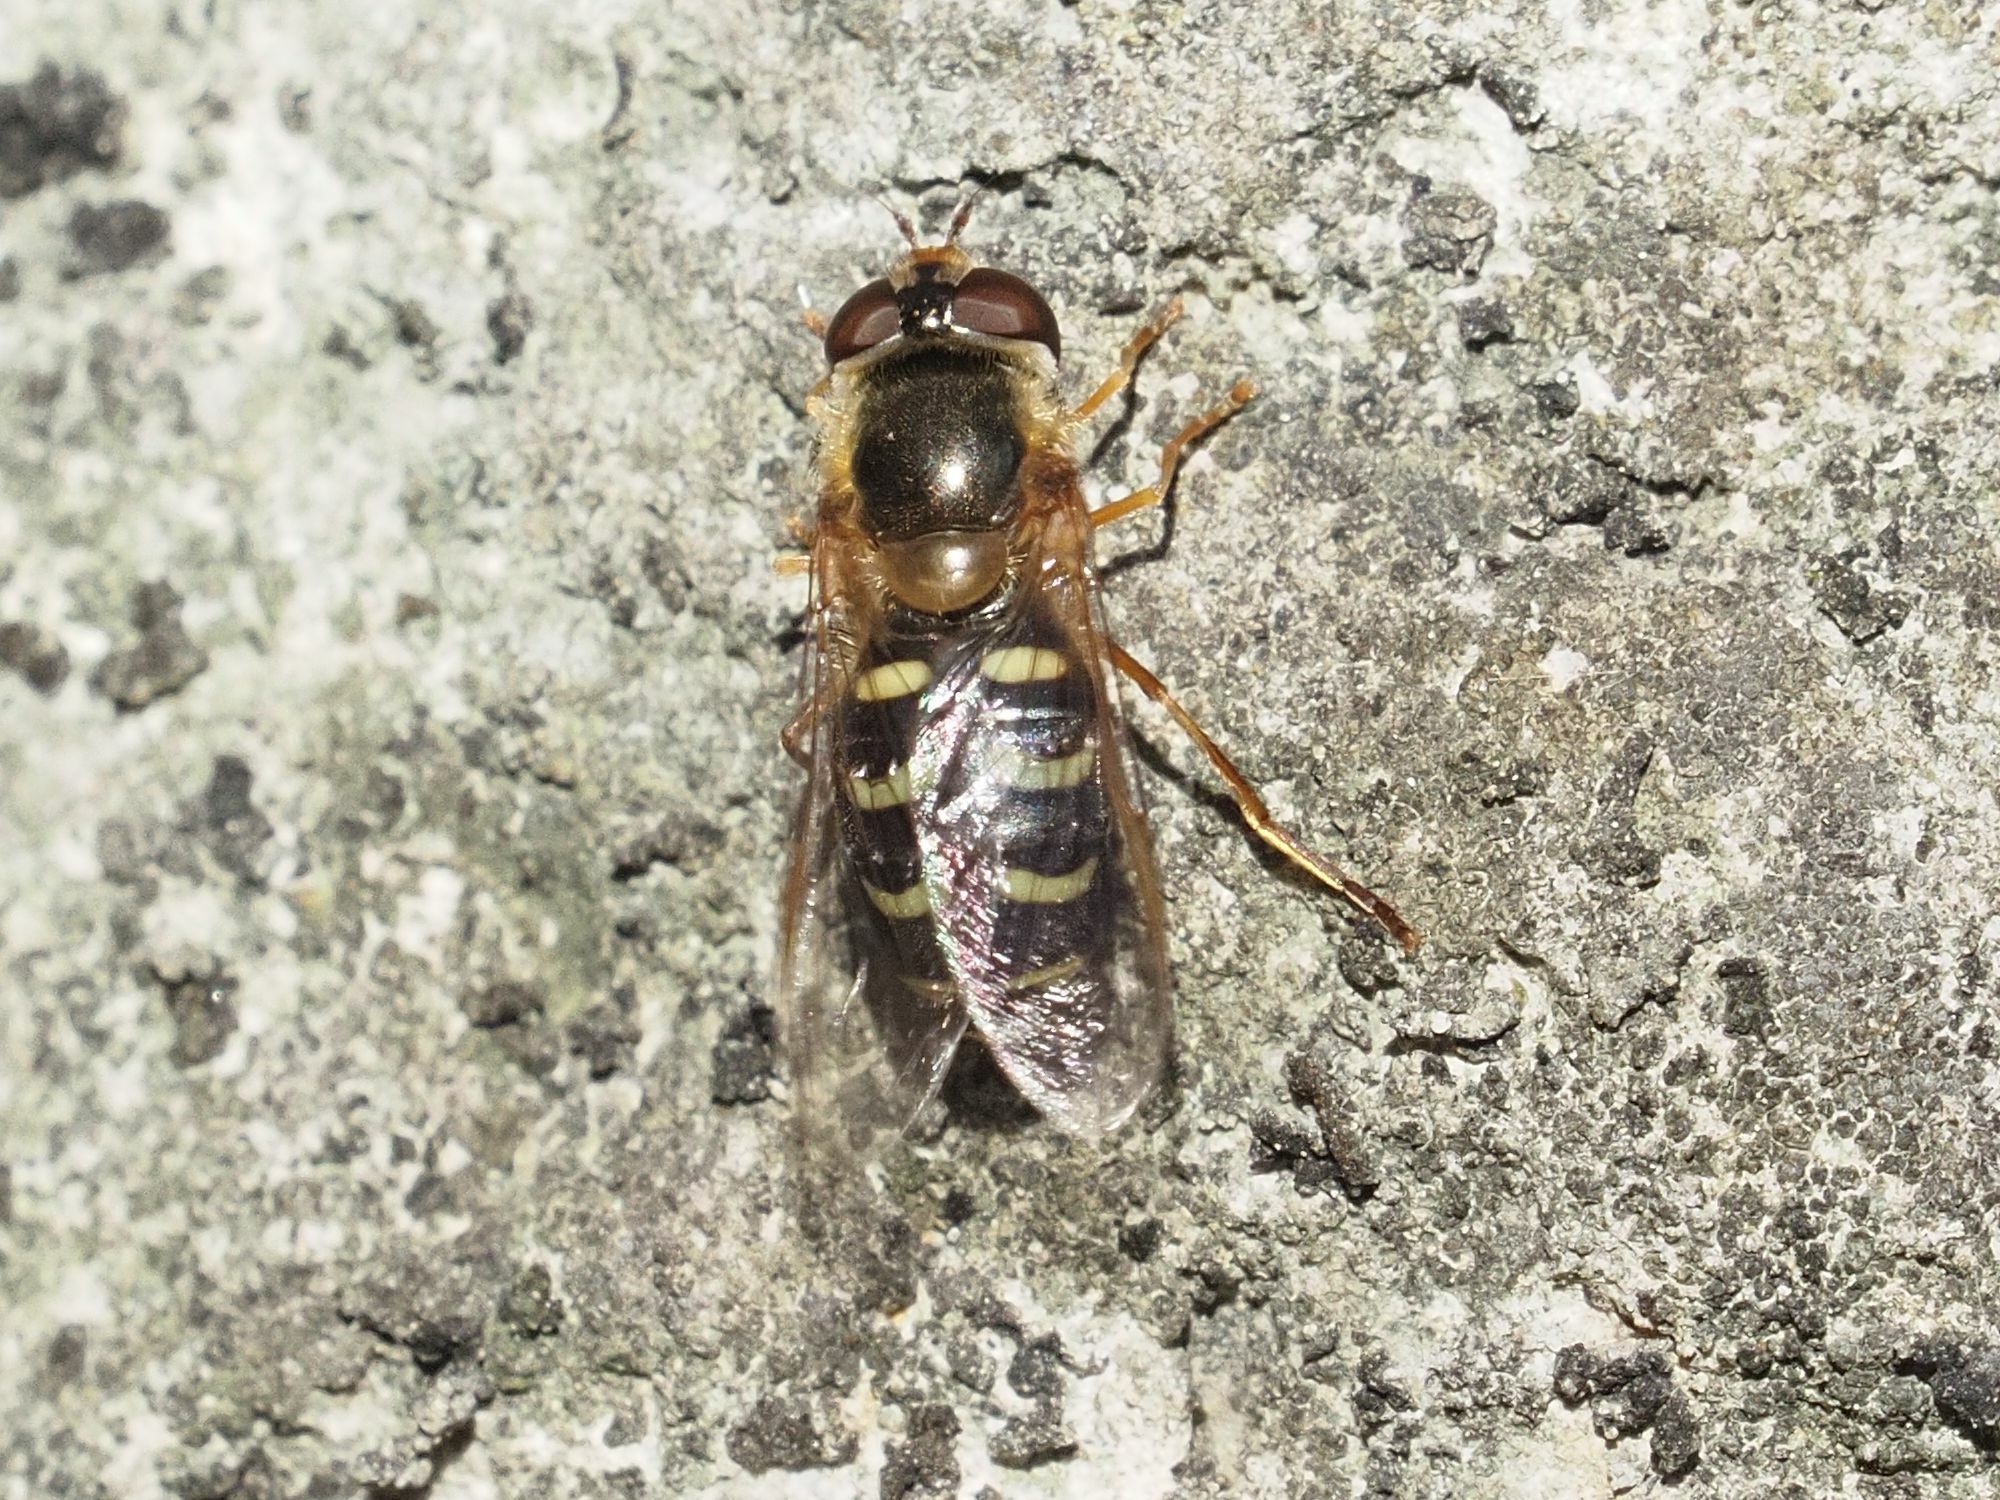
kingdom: Animalia
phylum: Arthropoda
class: Insecta
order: Diptera
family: Syrphidae
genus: Lapposyrphus
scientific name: Lapposyrphus lapponicus
